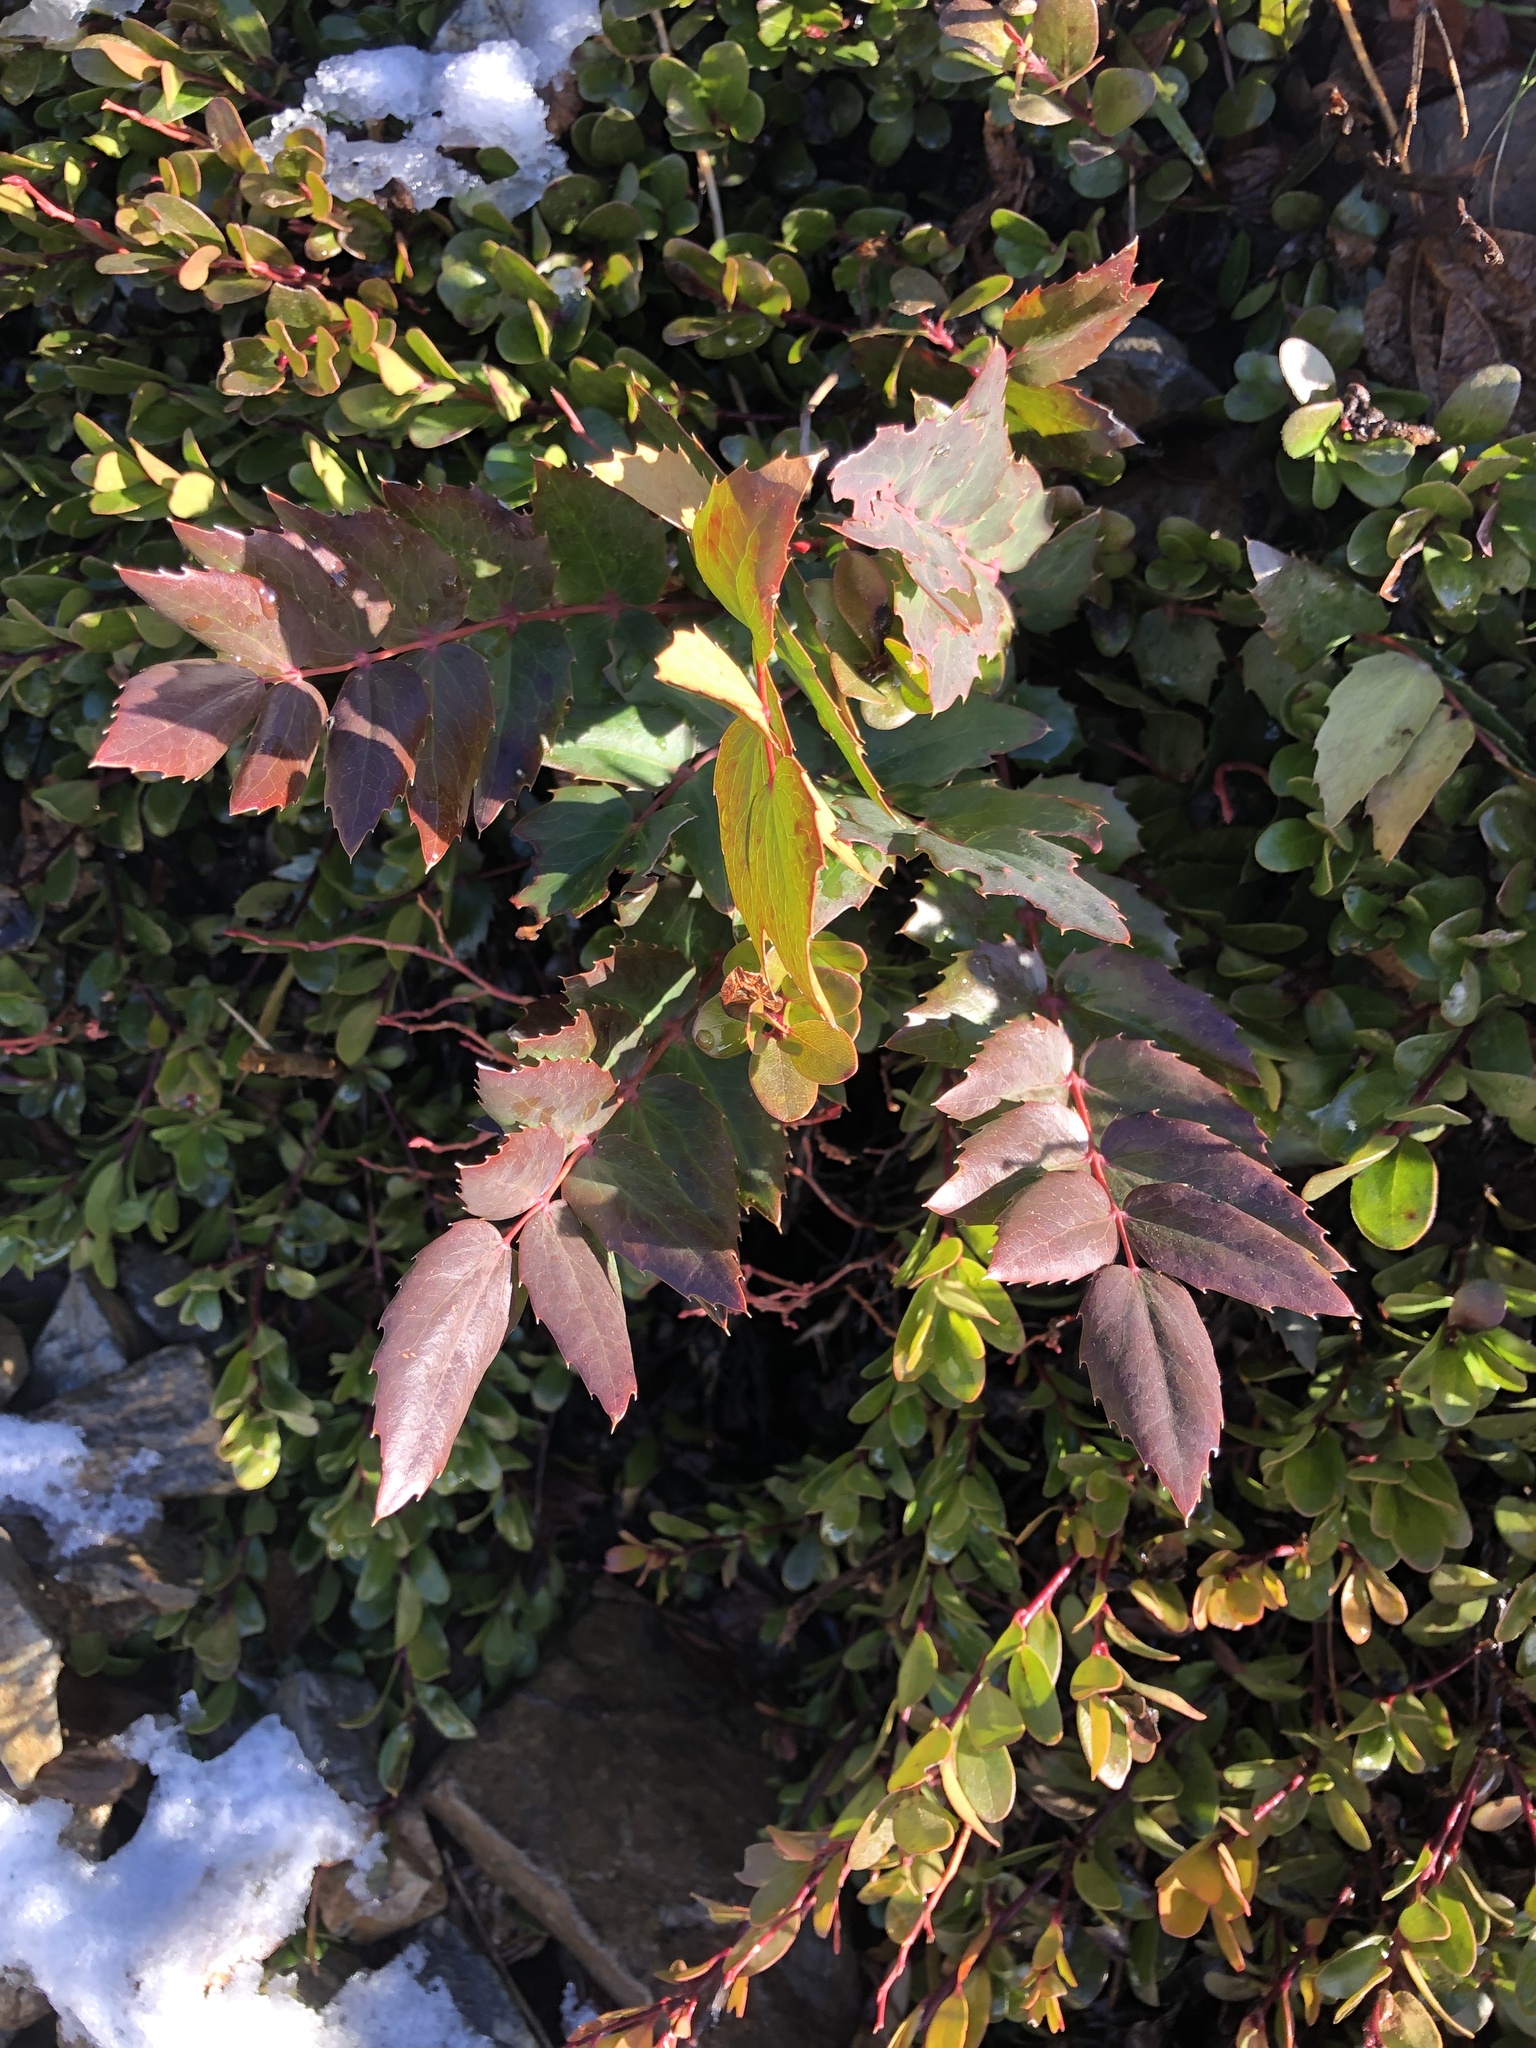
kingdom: Plantae
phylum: Tracheophyta
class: Magnoliopsida
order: Ranunculales
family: Berberidaceae
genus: Mahonia
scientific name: Mahonia nervosa
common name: Cascade oregon-grape
